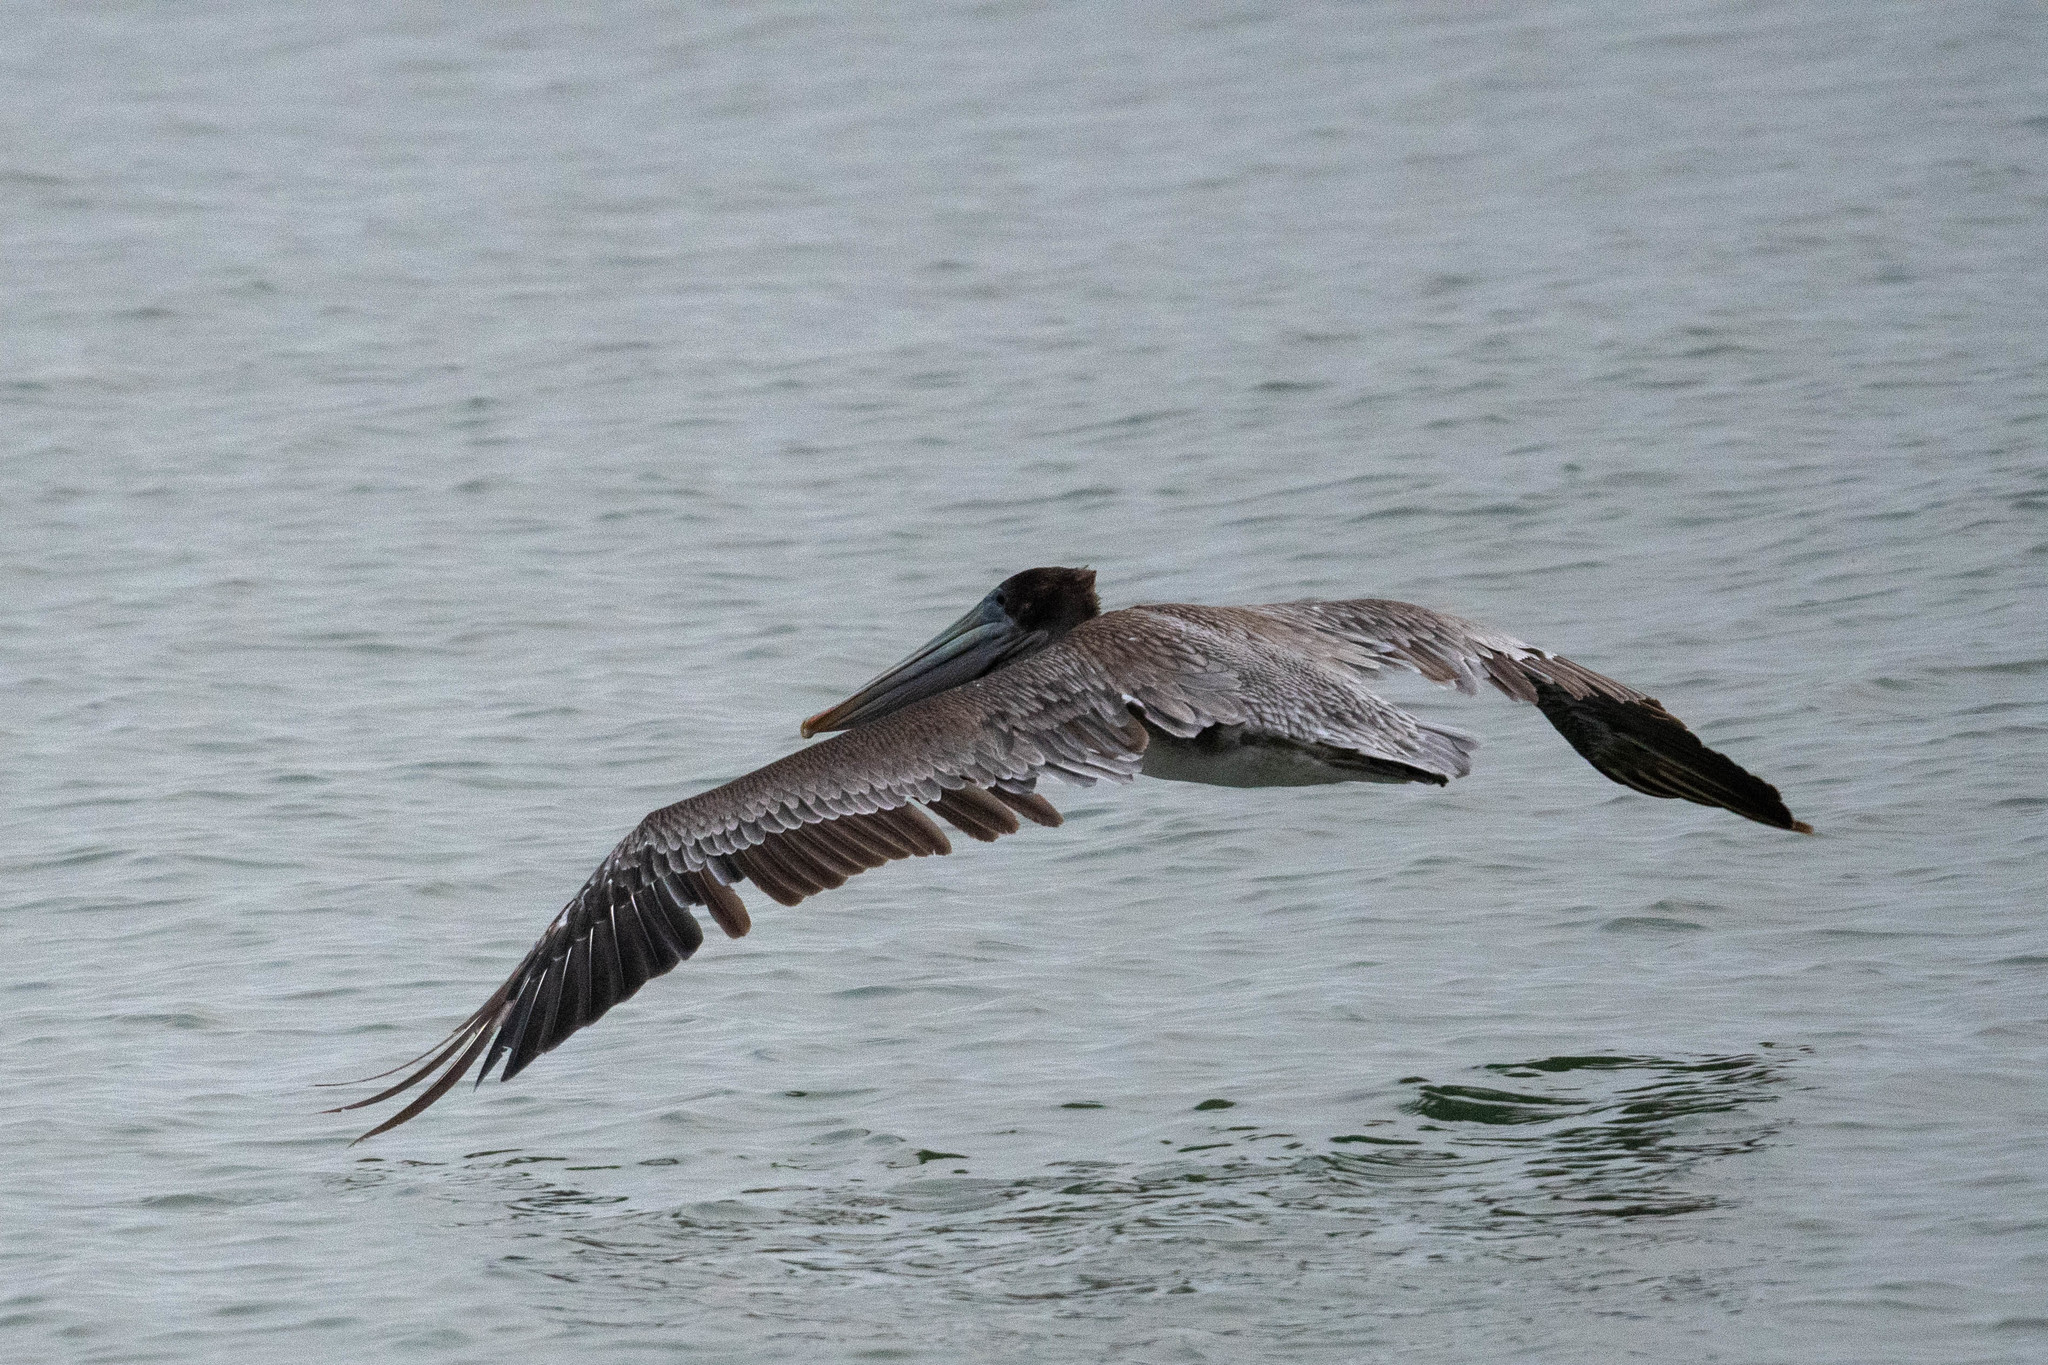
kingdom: Animalia
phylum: Chordata
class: Aves
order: Pelecaniformes
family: Pelecanidae
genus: Pelecanus
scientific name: Pelecanus occidentalis
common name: Brown pelican
